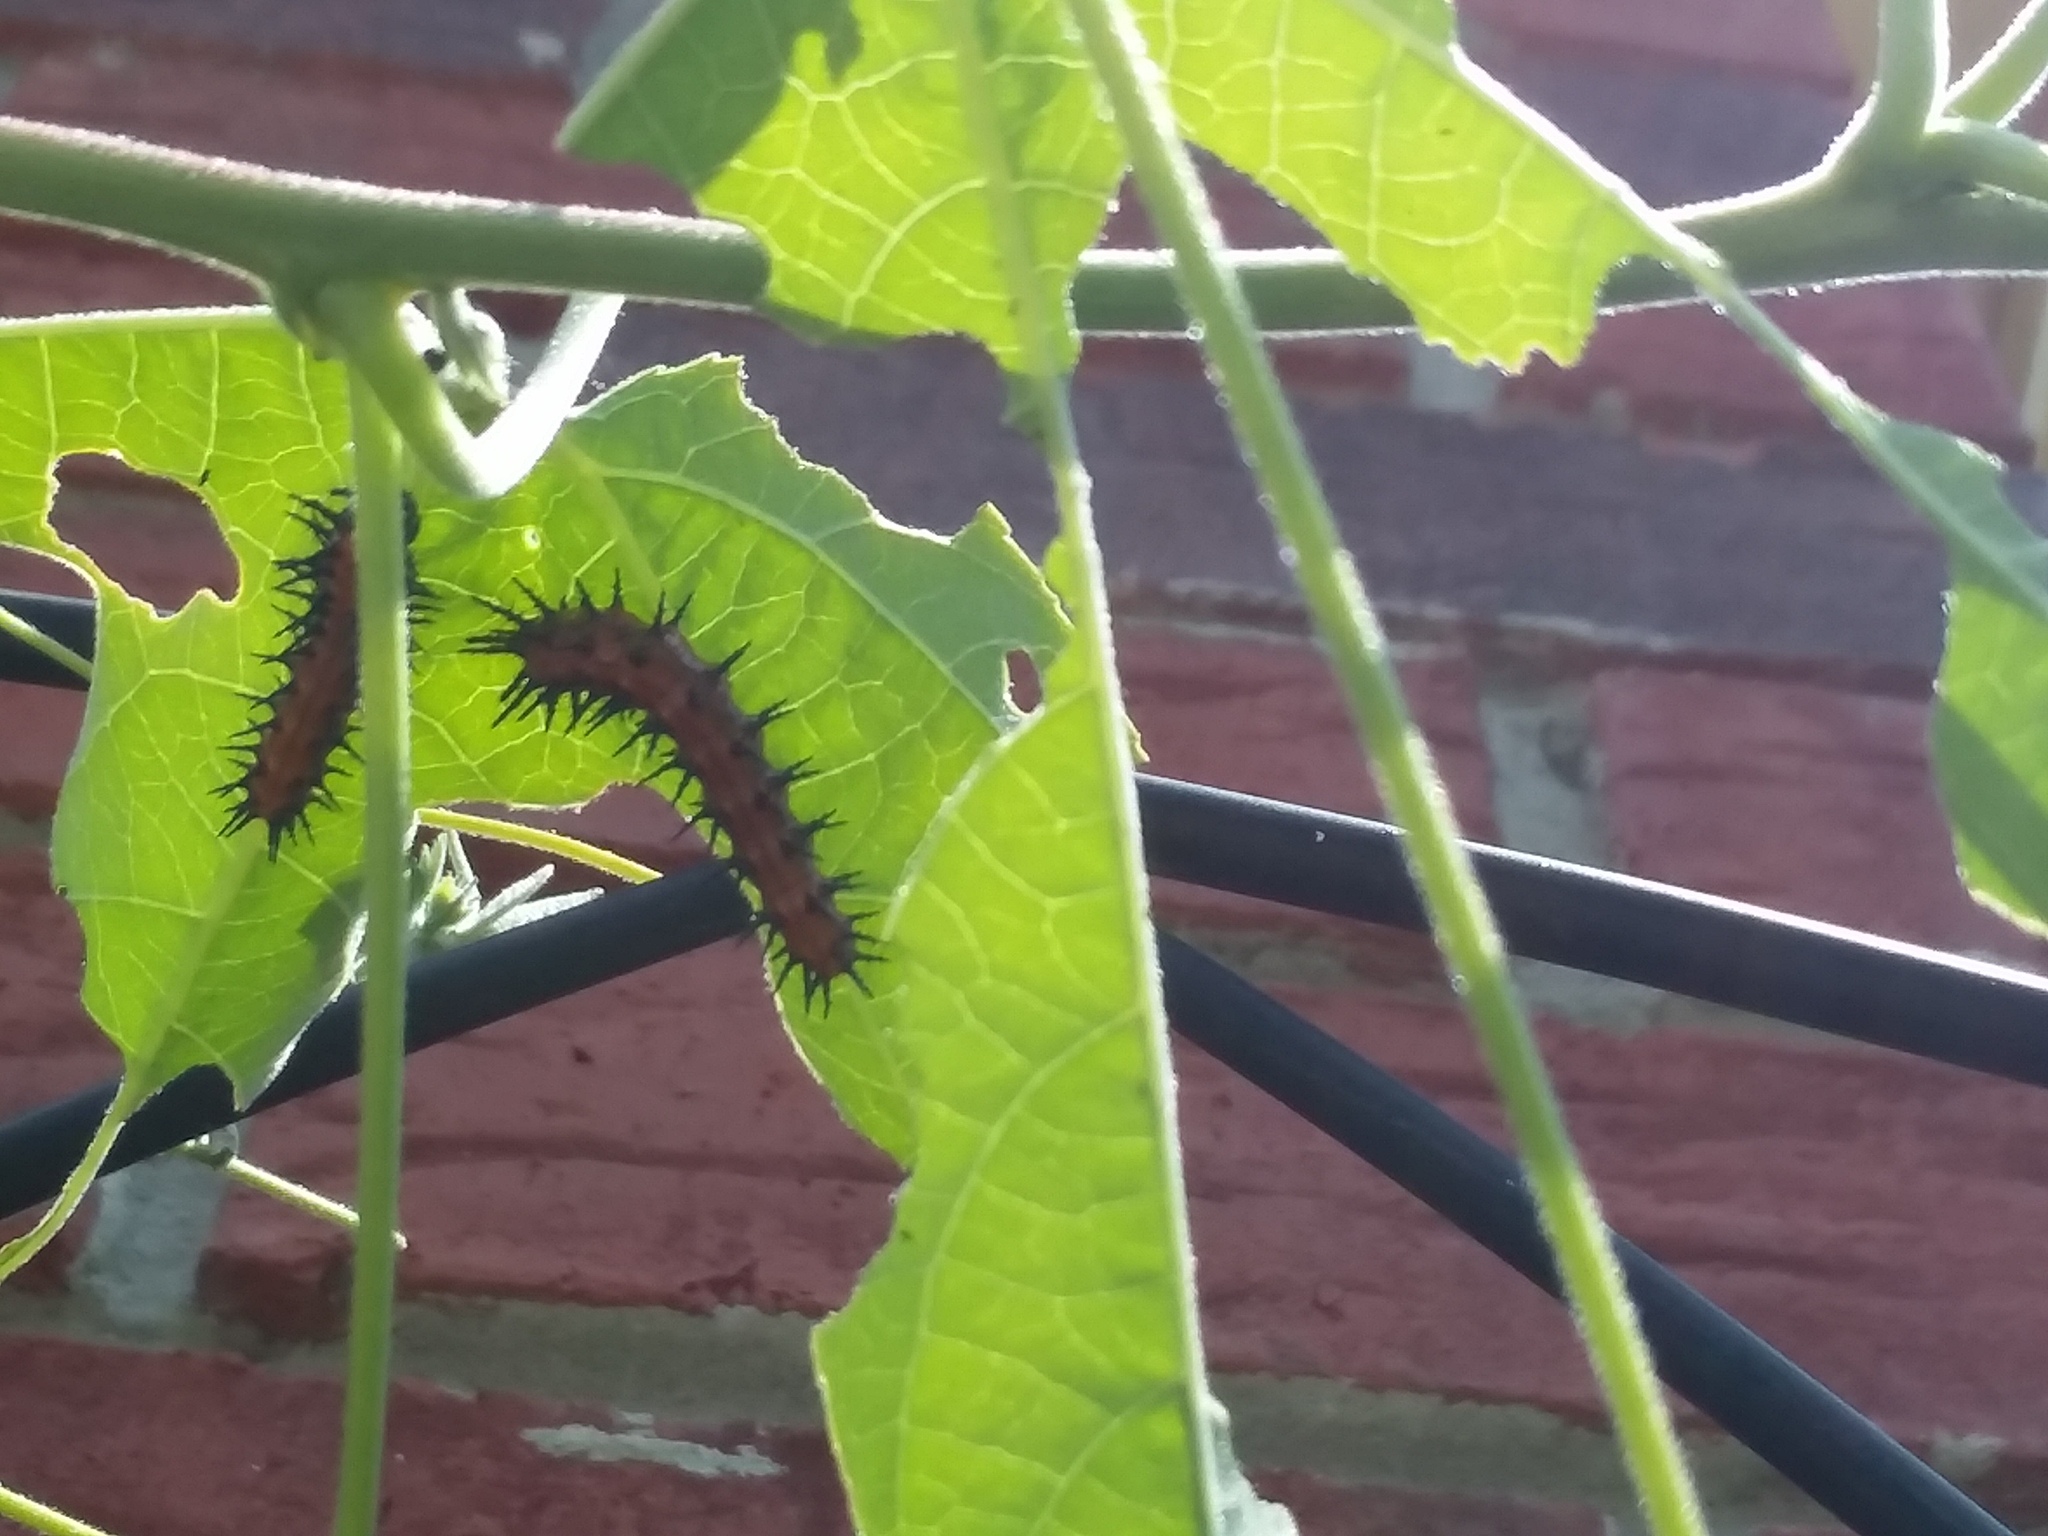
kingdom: Animalia
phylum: Arthropoda
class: Insecta
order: Lepidoptera
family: Nymphalidae
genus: Dione
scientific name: Dione vanillae
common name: Gulf fritillary
